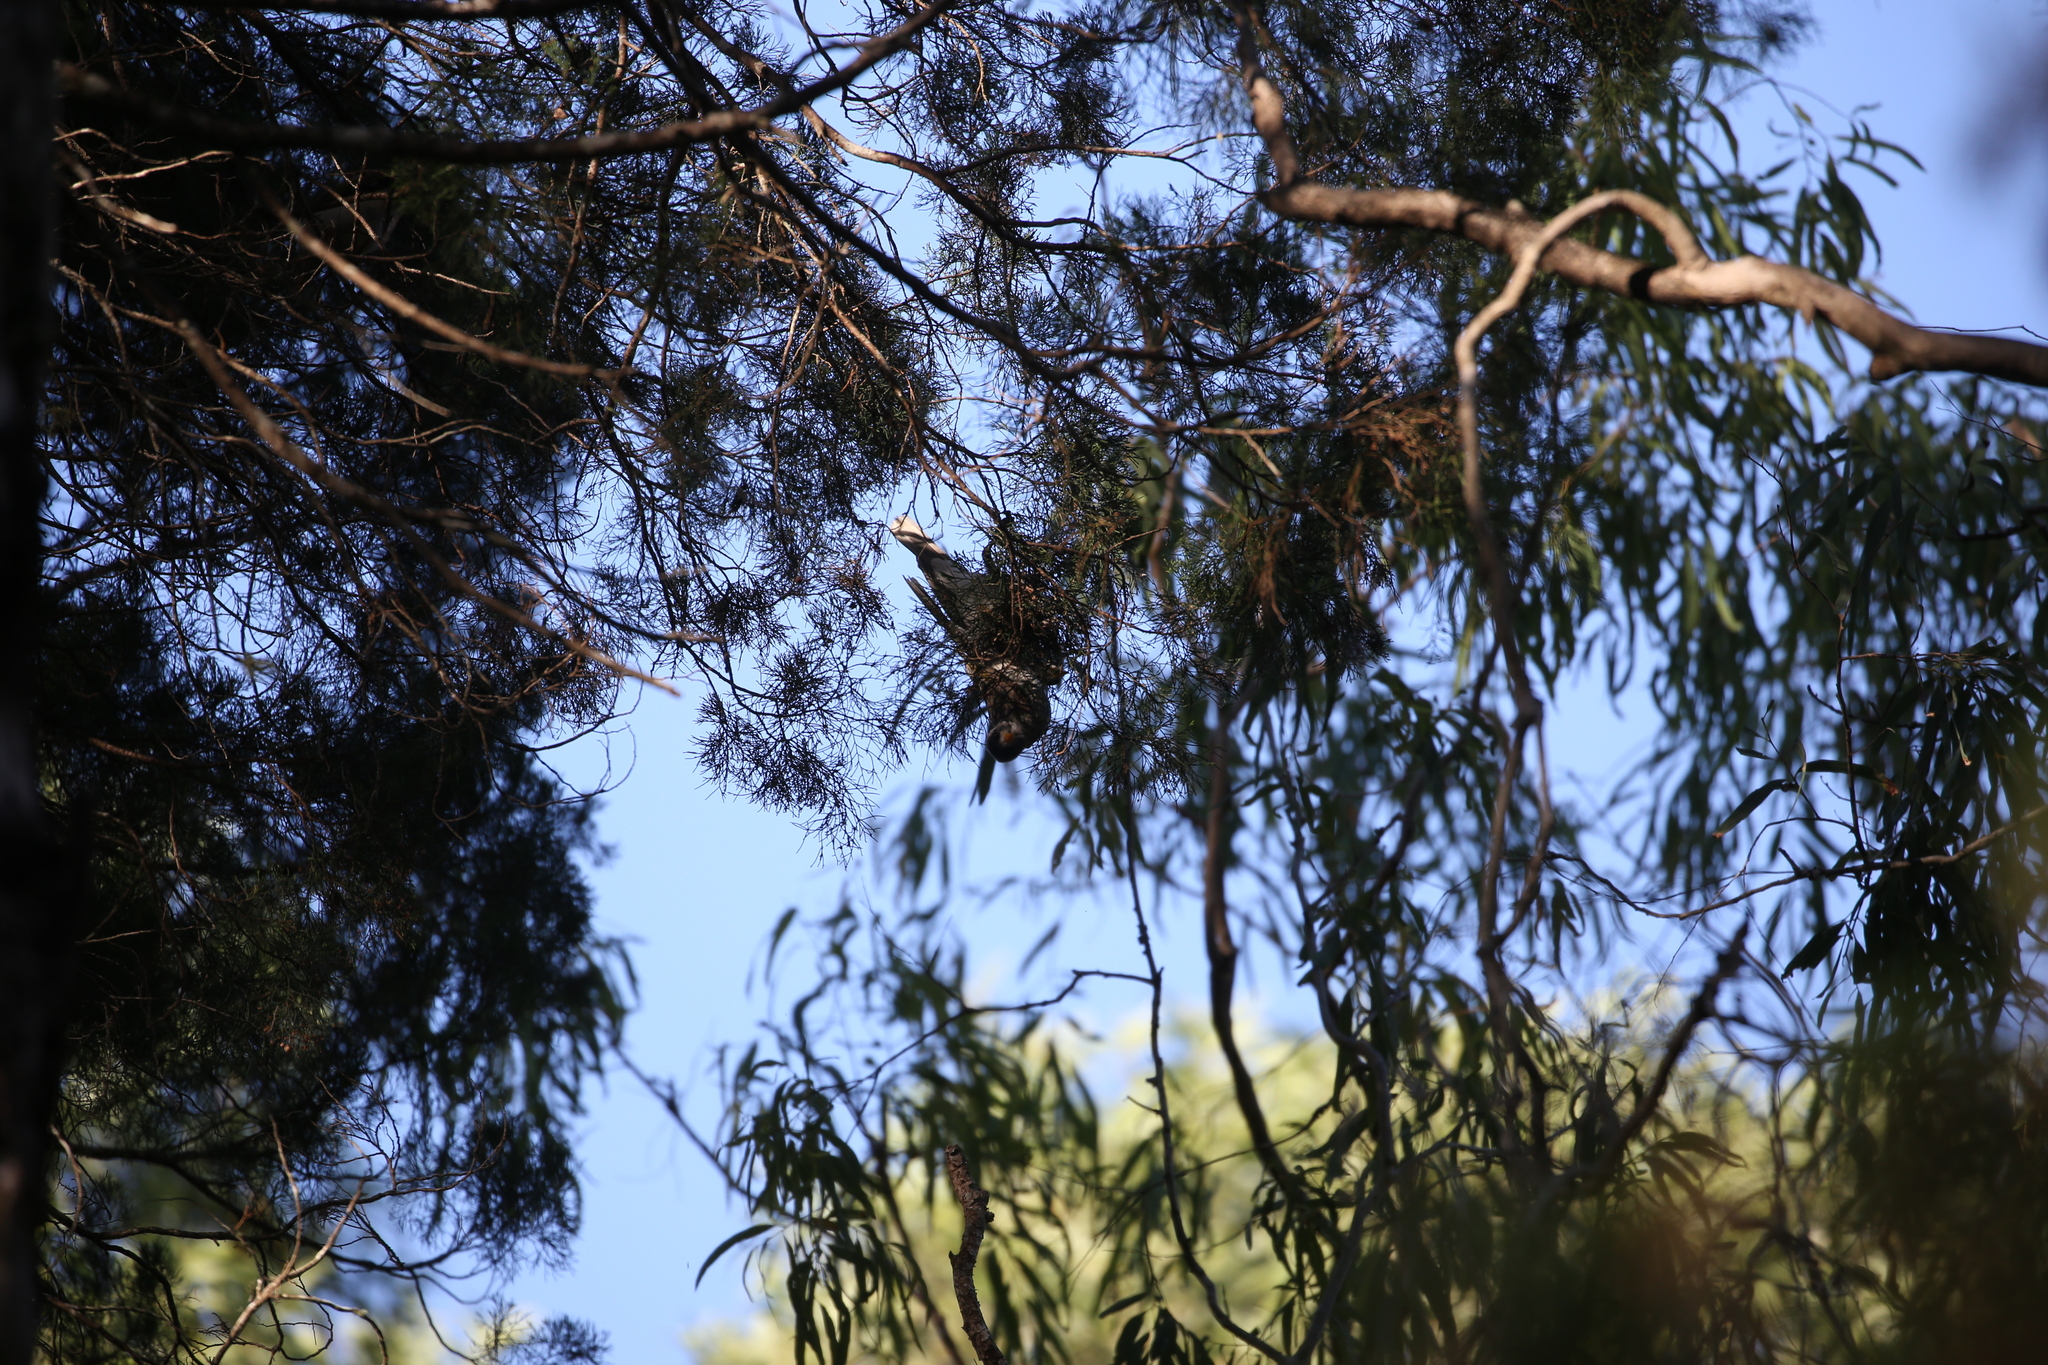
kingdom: Animalia
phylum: Chordata
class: Aves
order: Passeriformes
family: Meliphagidae
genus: Manorina
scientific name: Manorina melanocephala
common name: Noisy miner
